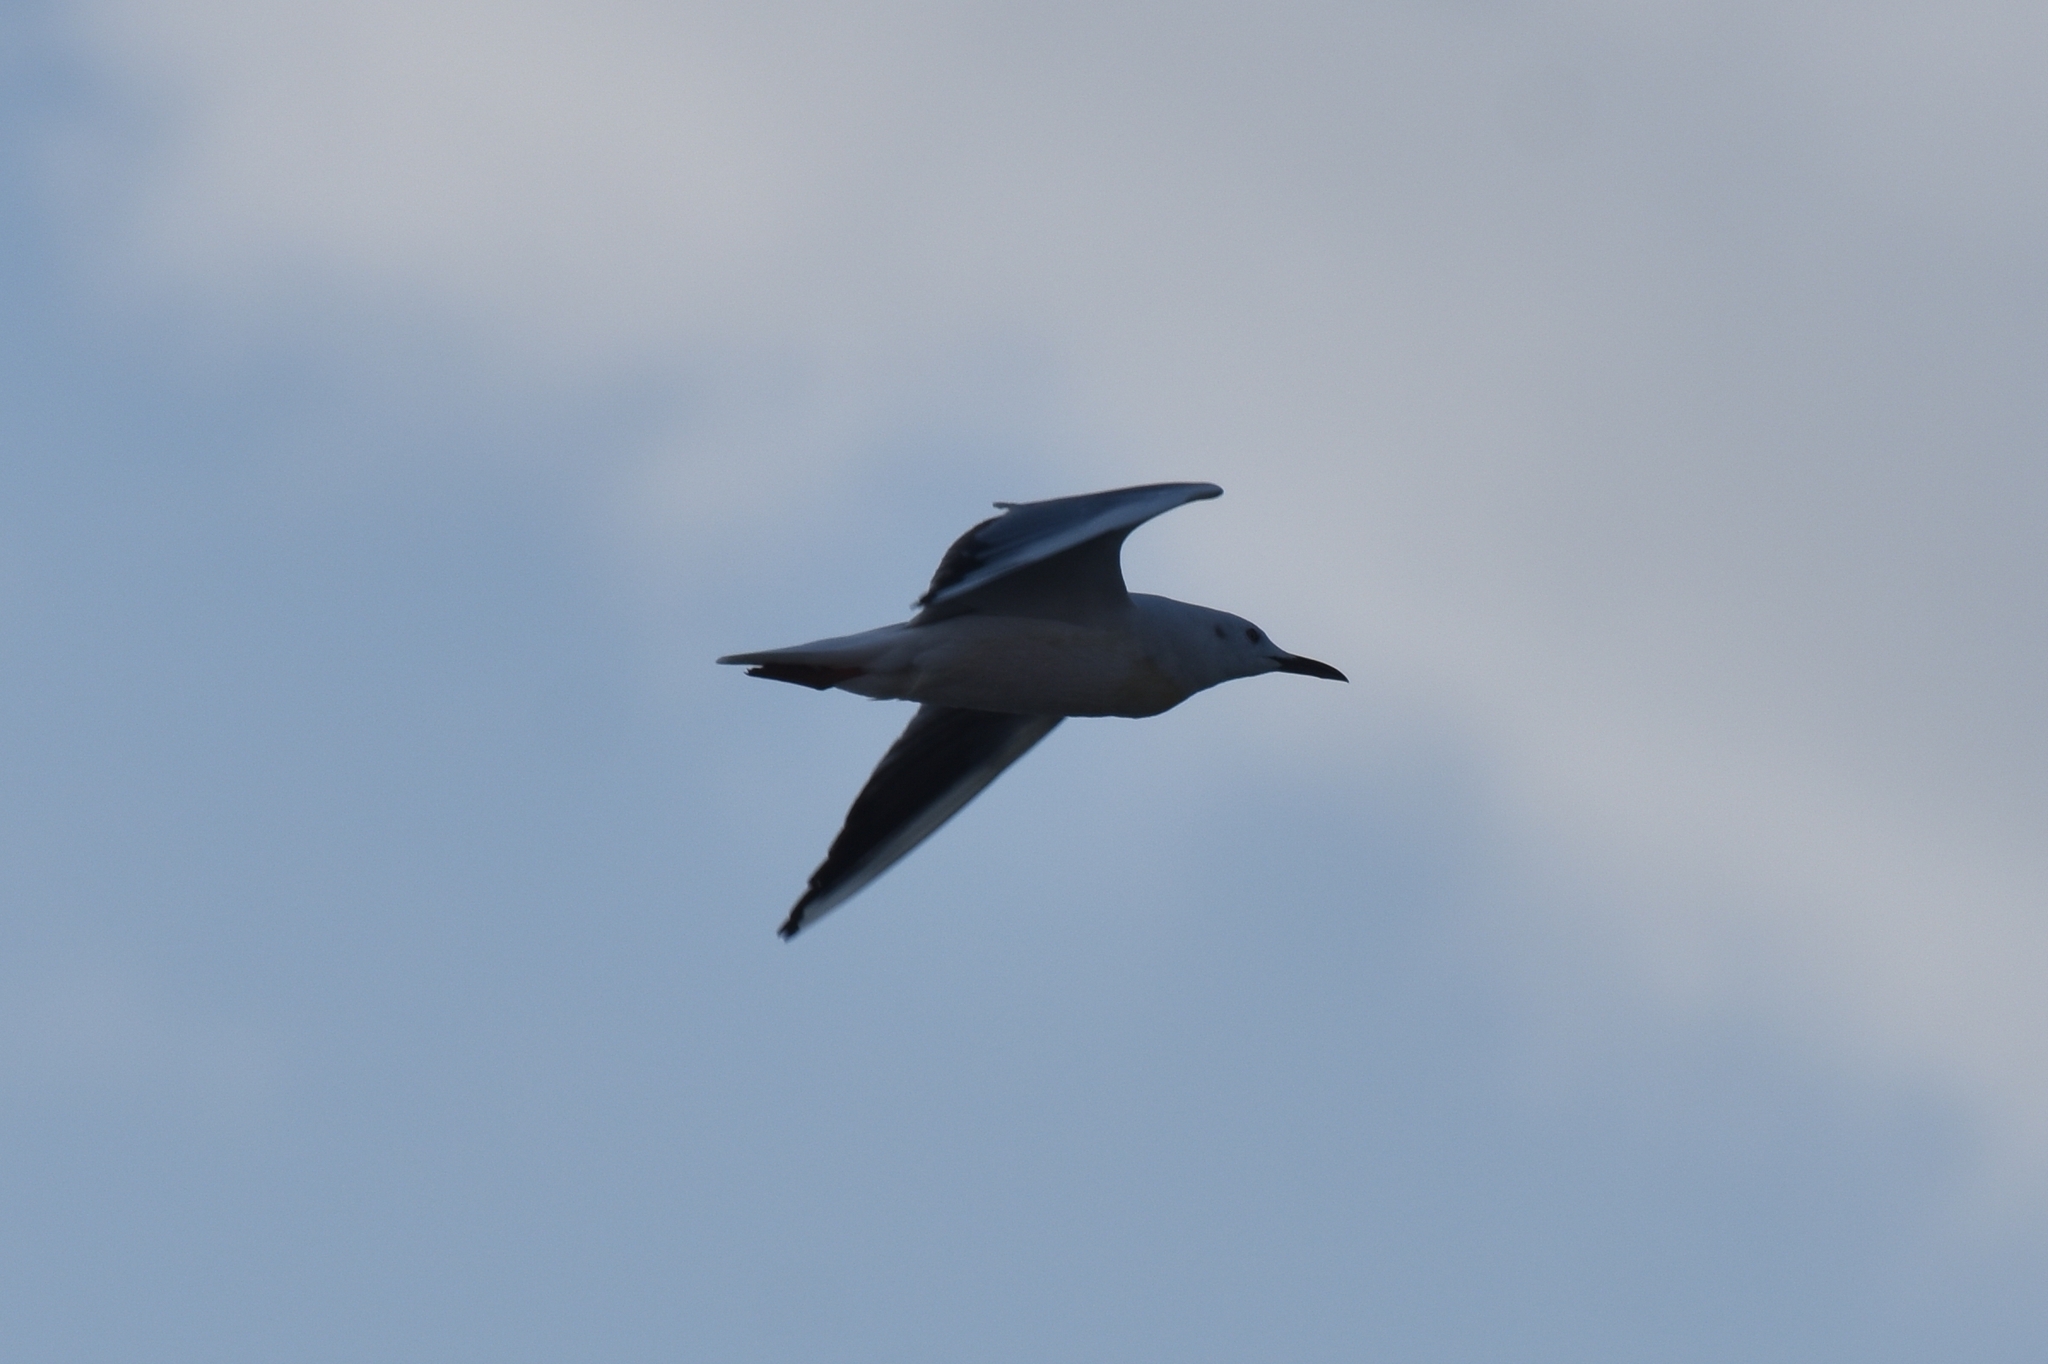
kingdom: Animalia
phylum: Chordata
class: Aves
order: Charadriiformes
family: Laridae
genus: Chroicocephalus
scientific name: Chroicocephalus genei
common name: Slender-billed gull
